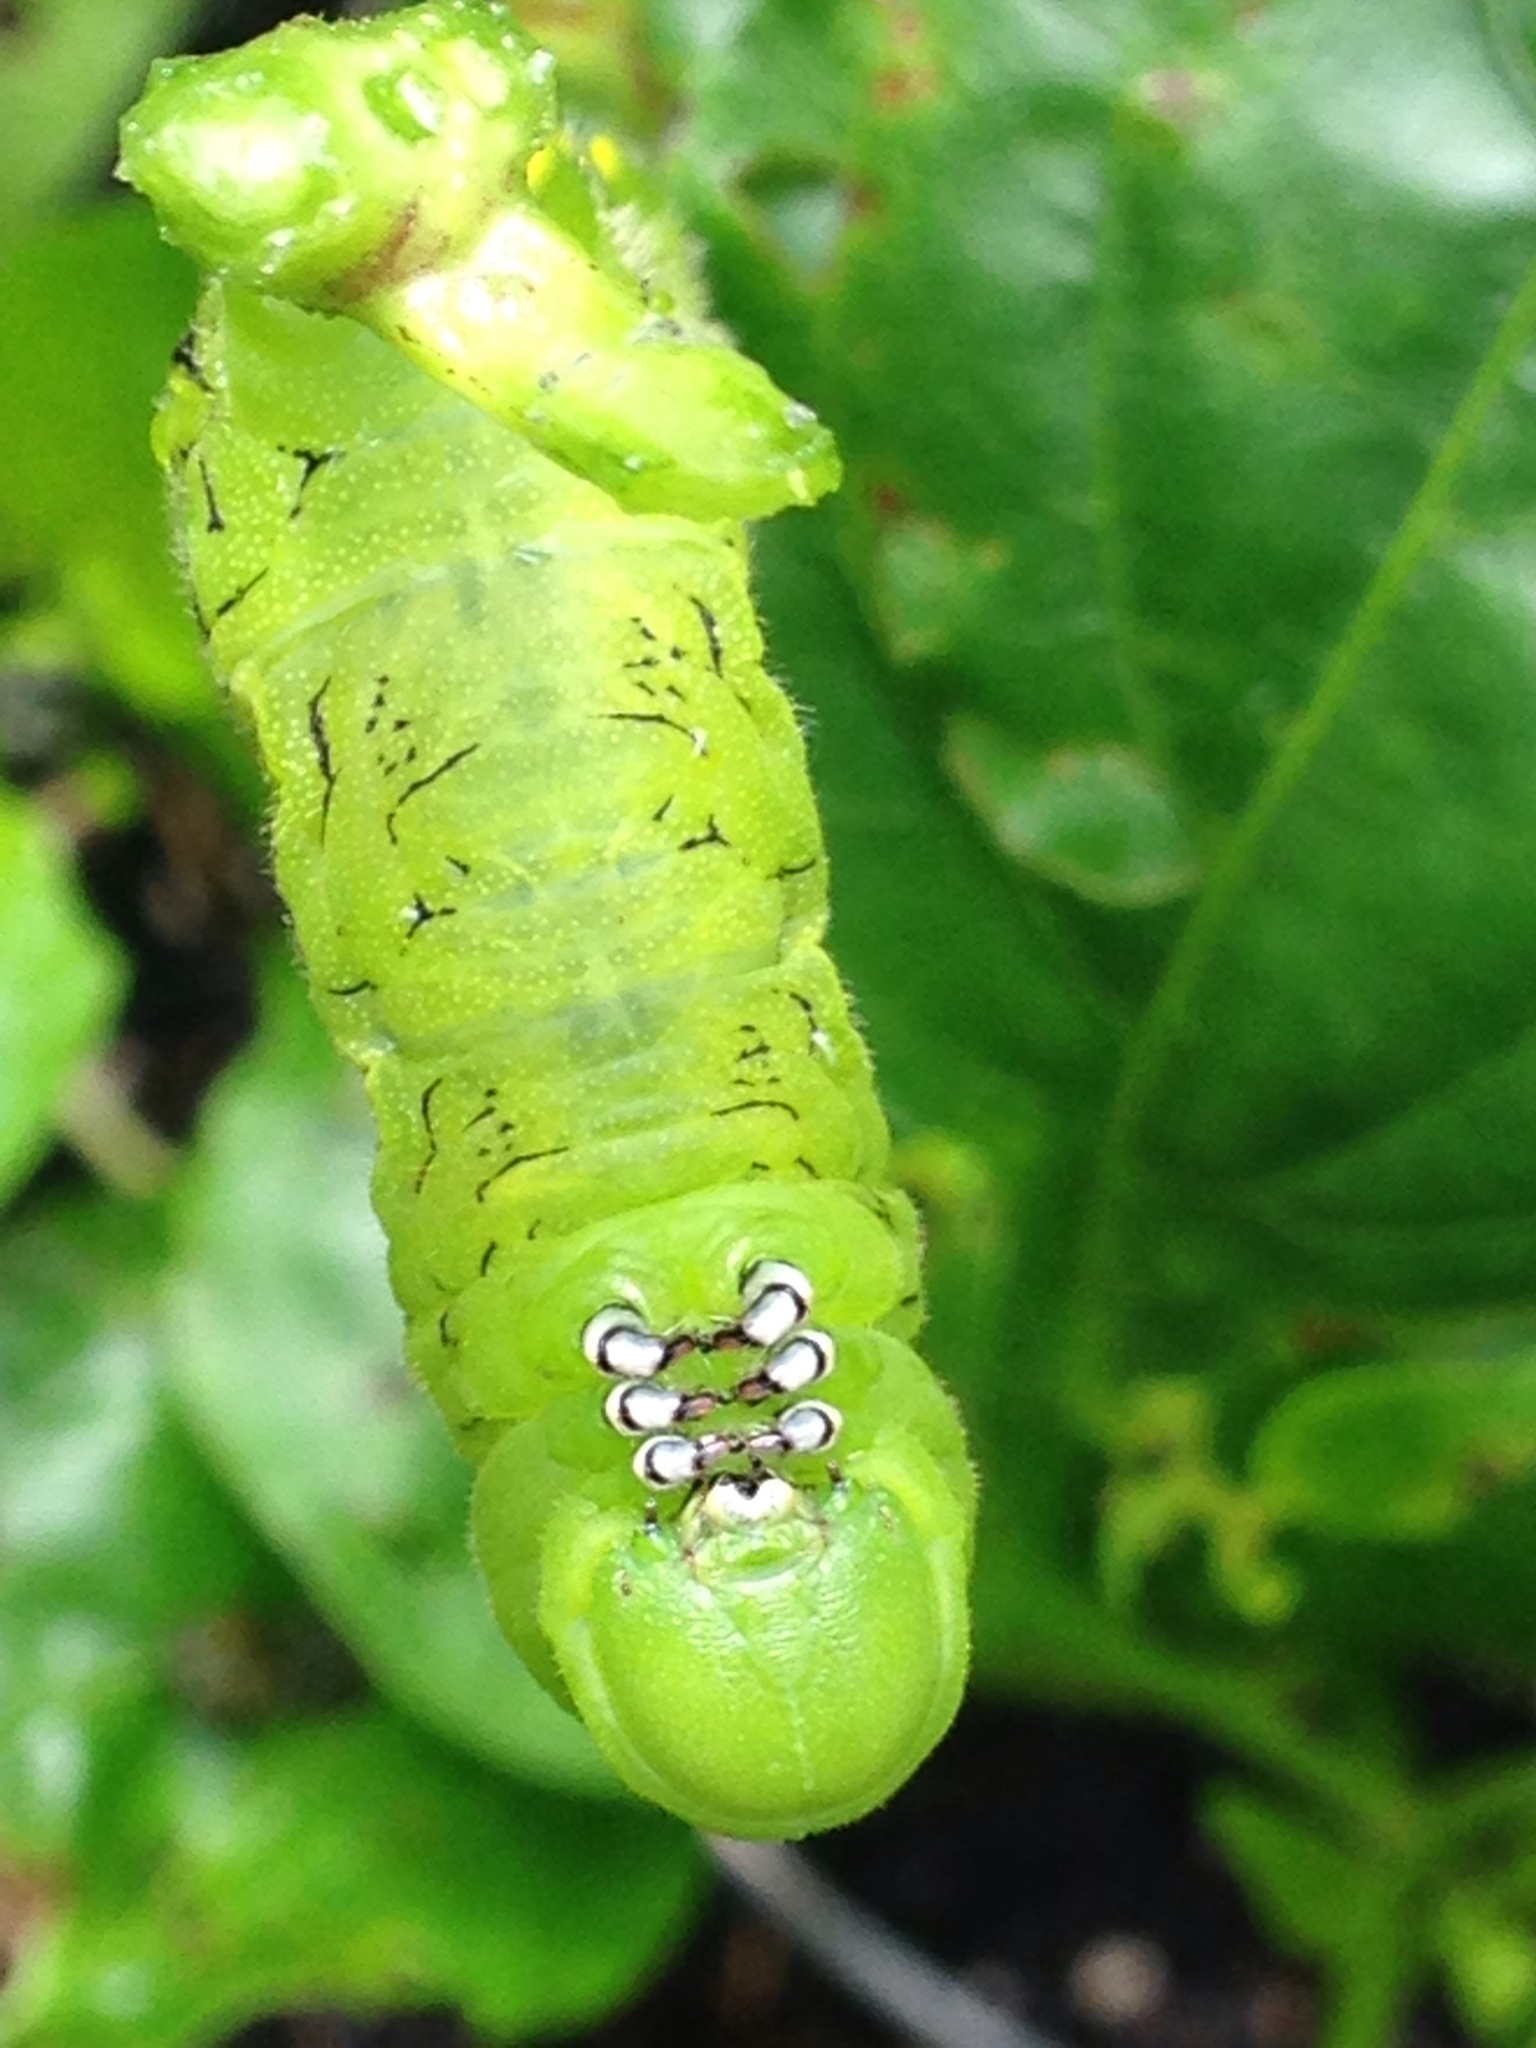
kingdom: Animalia
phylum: Arthropoda
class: Insecta
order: Lepidoptera
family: Sphingidae
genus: Manduca
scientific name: Manduca sexta
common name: Carolina sphinx
